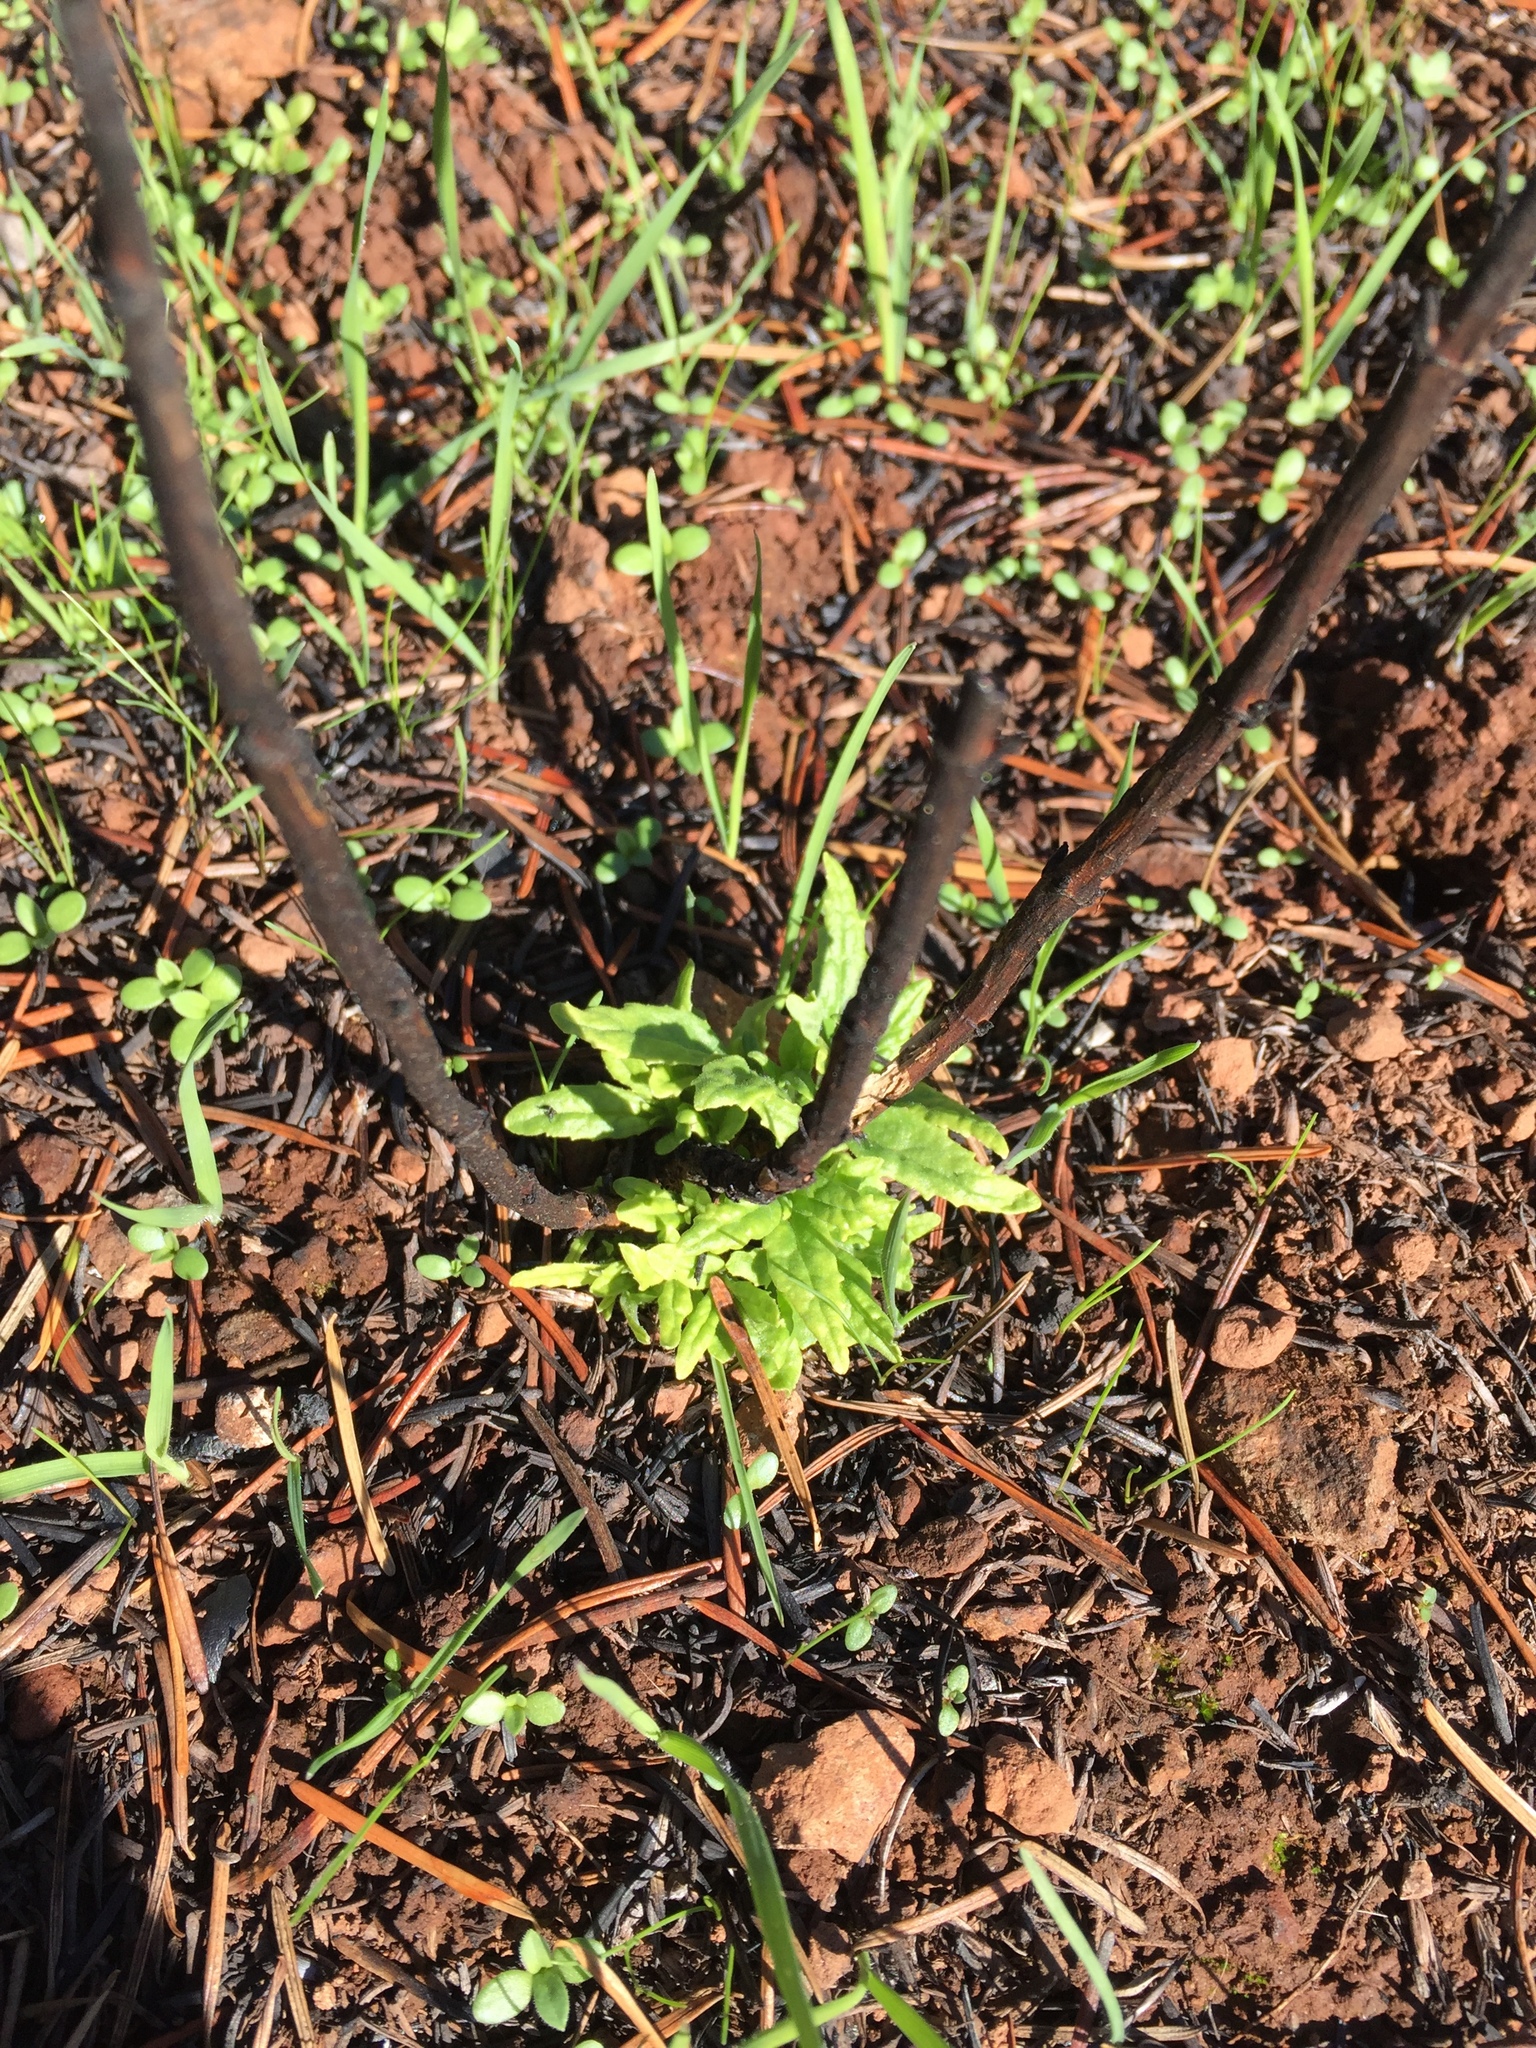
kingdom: Plantae
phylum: Tracheophyta
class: Magnoliopsida
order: Lamiales
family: Phrymaceae
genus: Diplacus
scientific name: Diplacus aurantiacus
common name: Bush monkey-flower
